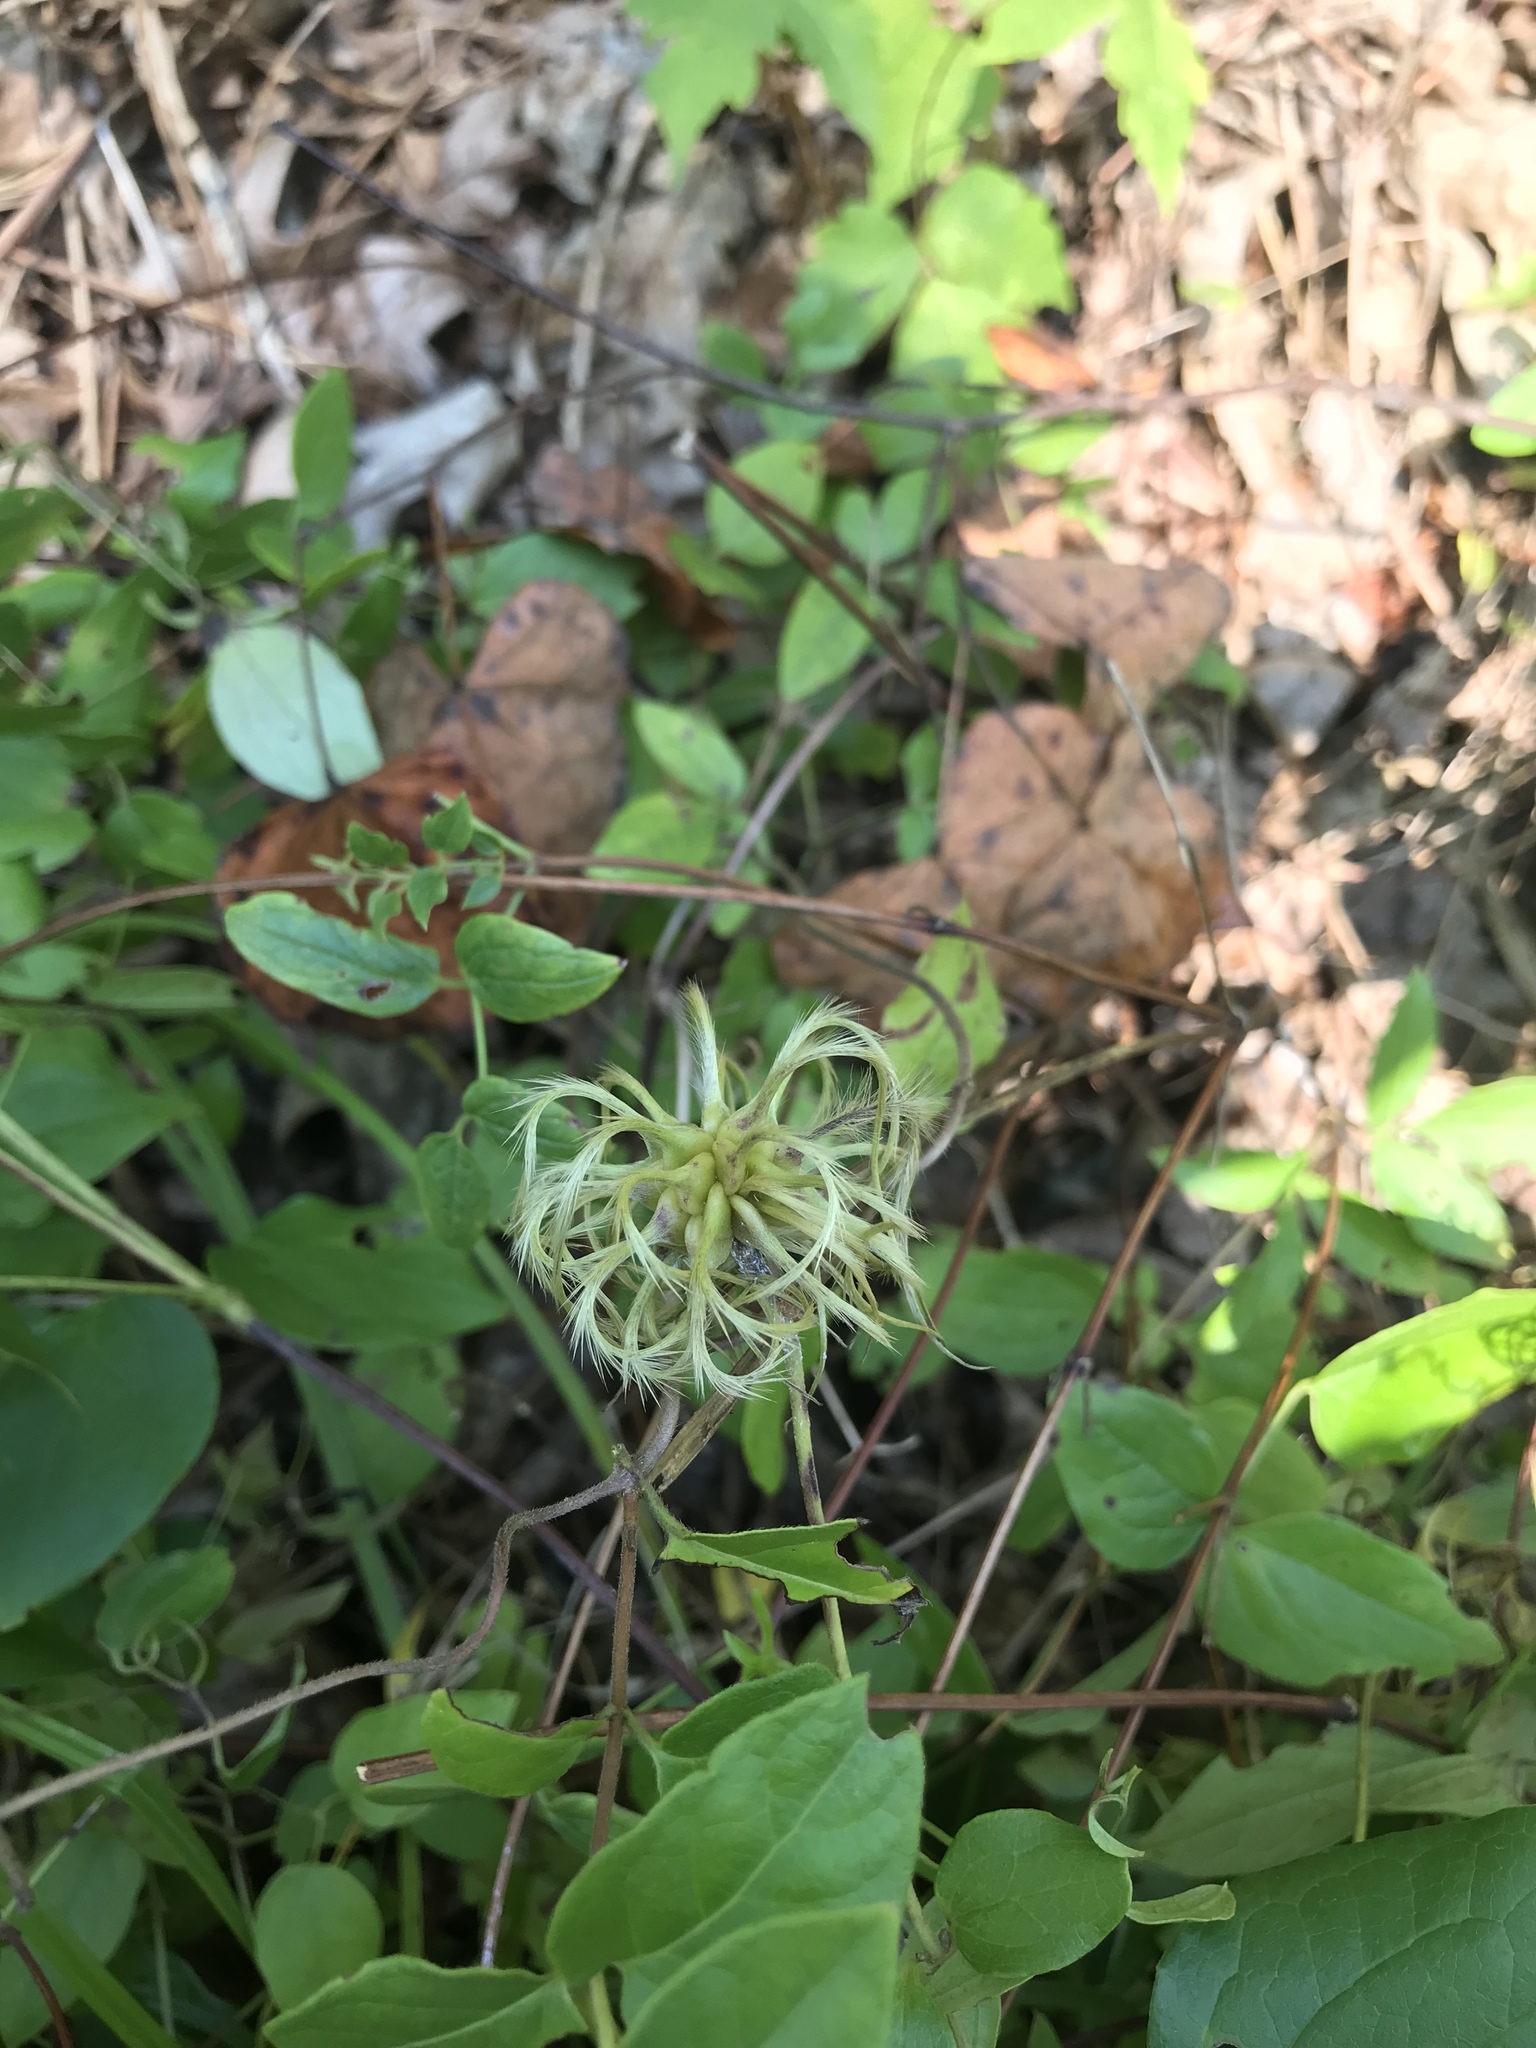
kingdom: Plantae
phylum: Tracheophyta
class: Magnoliopsida
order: Ranunculales
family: Ranunculaceae
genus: Clematis
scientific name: Clematis ochroleuca
